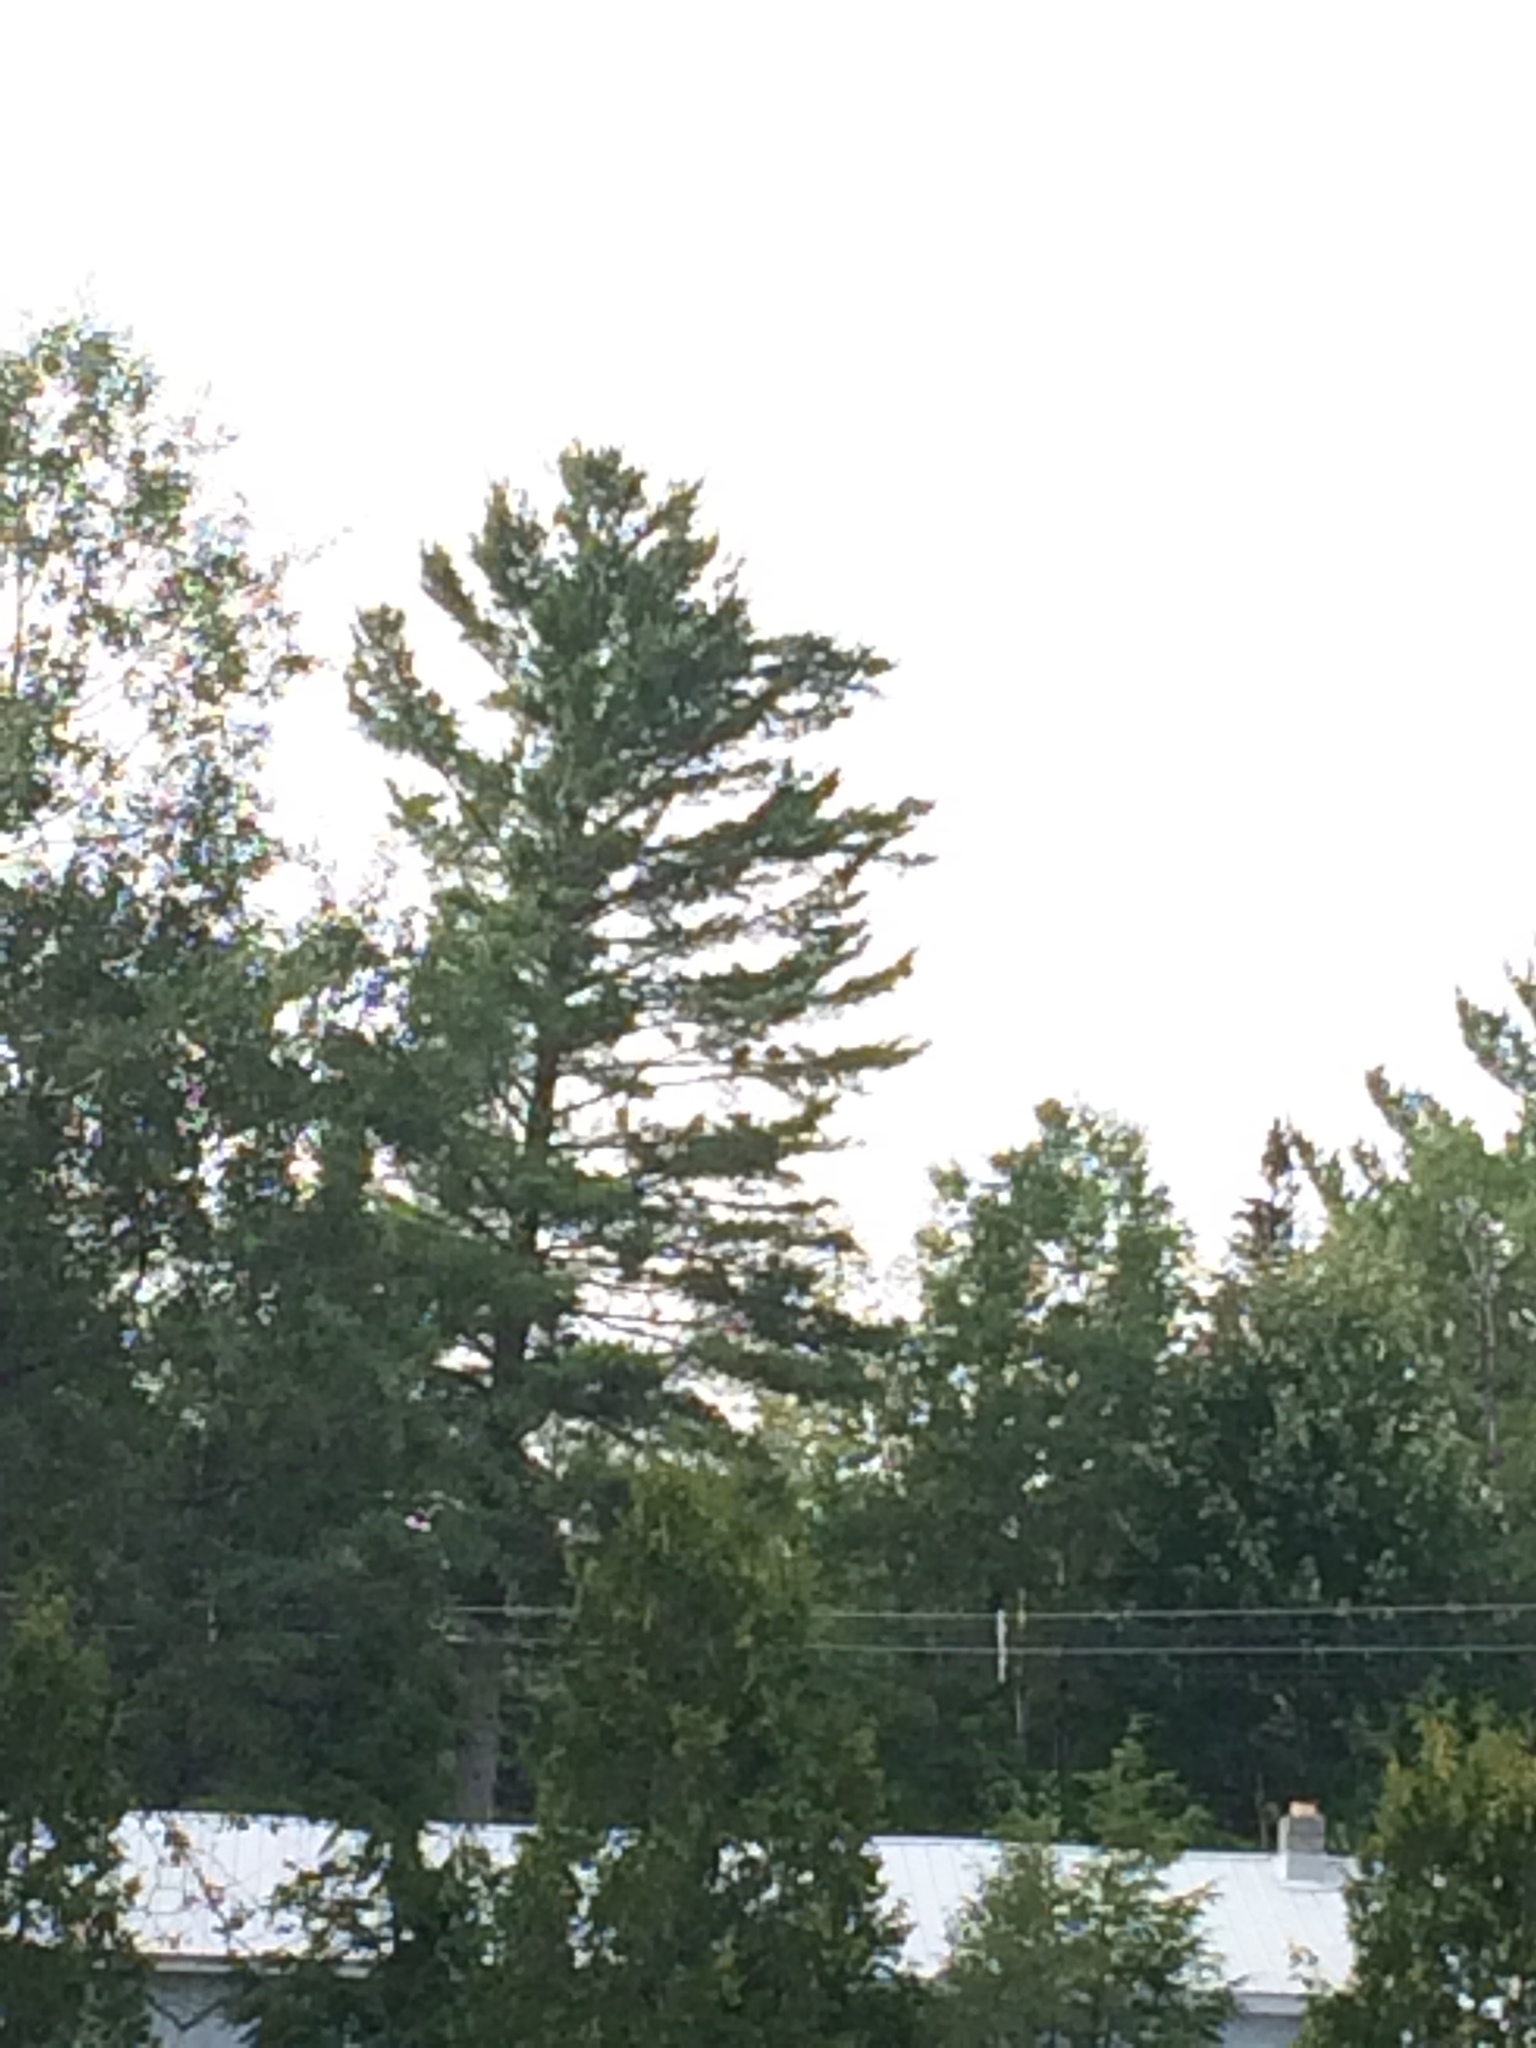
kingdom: Plantae
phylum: Tracheophyta
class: Pinopsida
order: Pinales
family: Pinaceae
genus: Pinus
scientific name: Pinus strobus
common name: Weymouth pine
